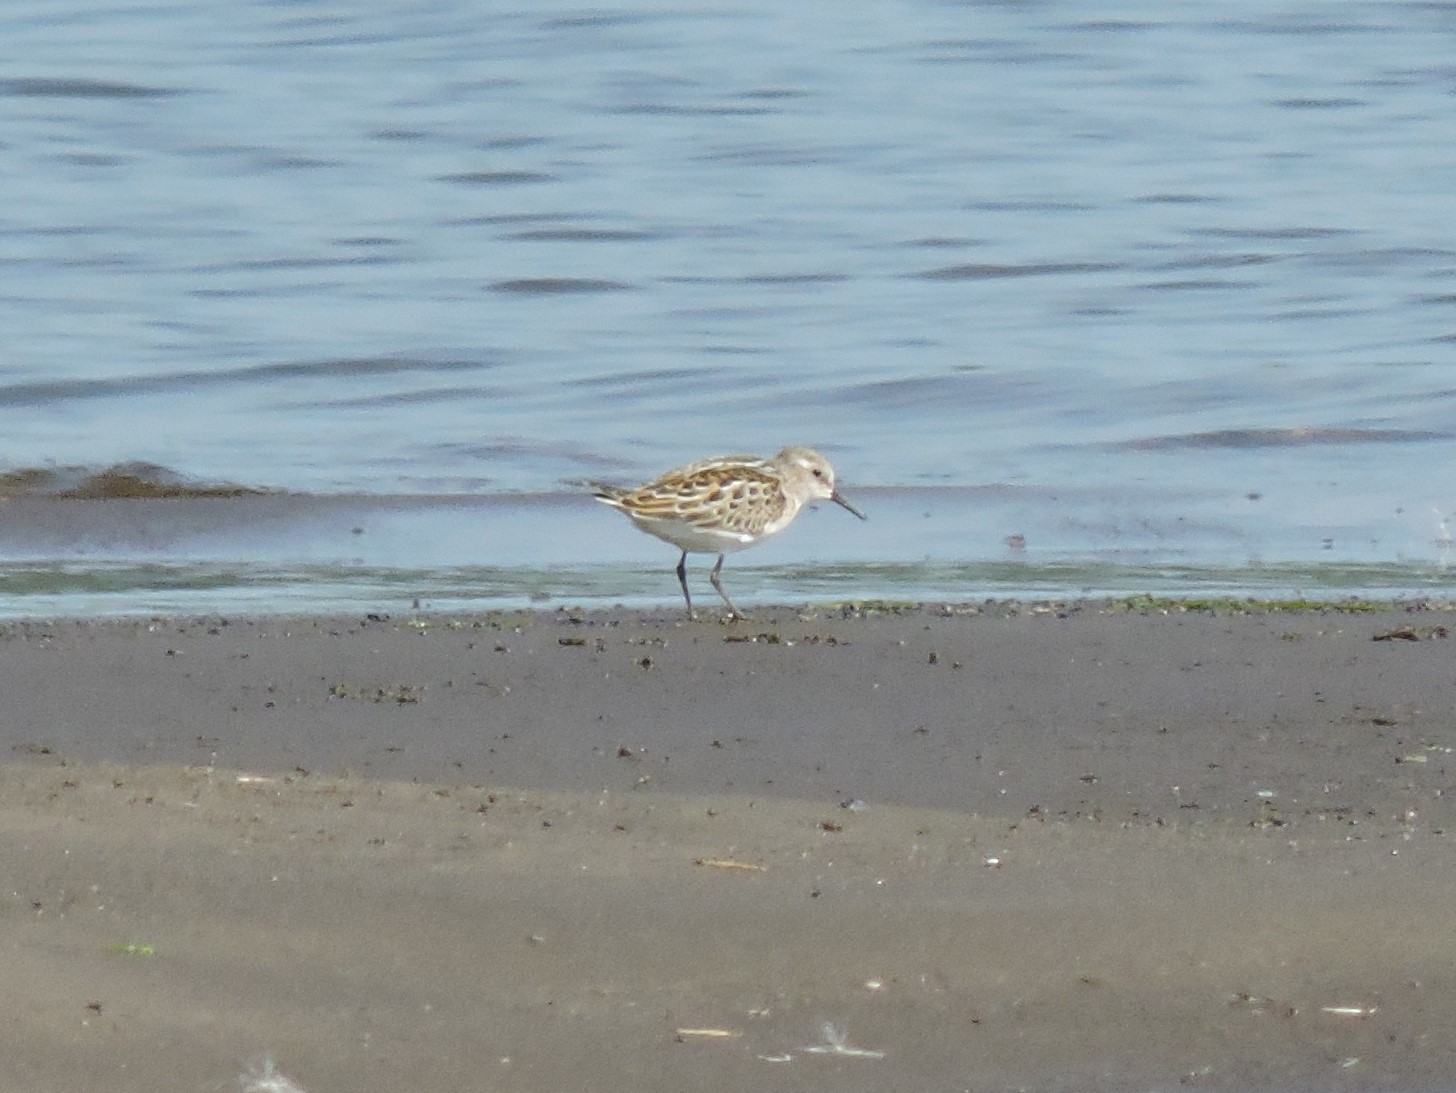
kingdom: Animalia
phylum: Chordata
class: Aves
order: Charadriiformes
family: Scolopacidae
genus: Calidris
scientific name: Calidris minuta
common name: Little stint
